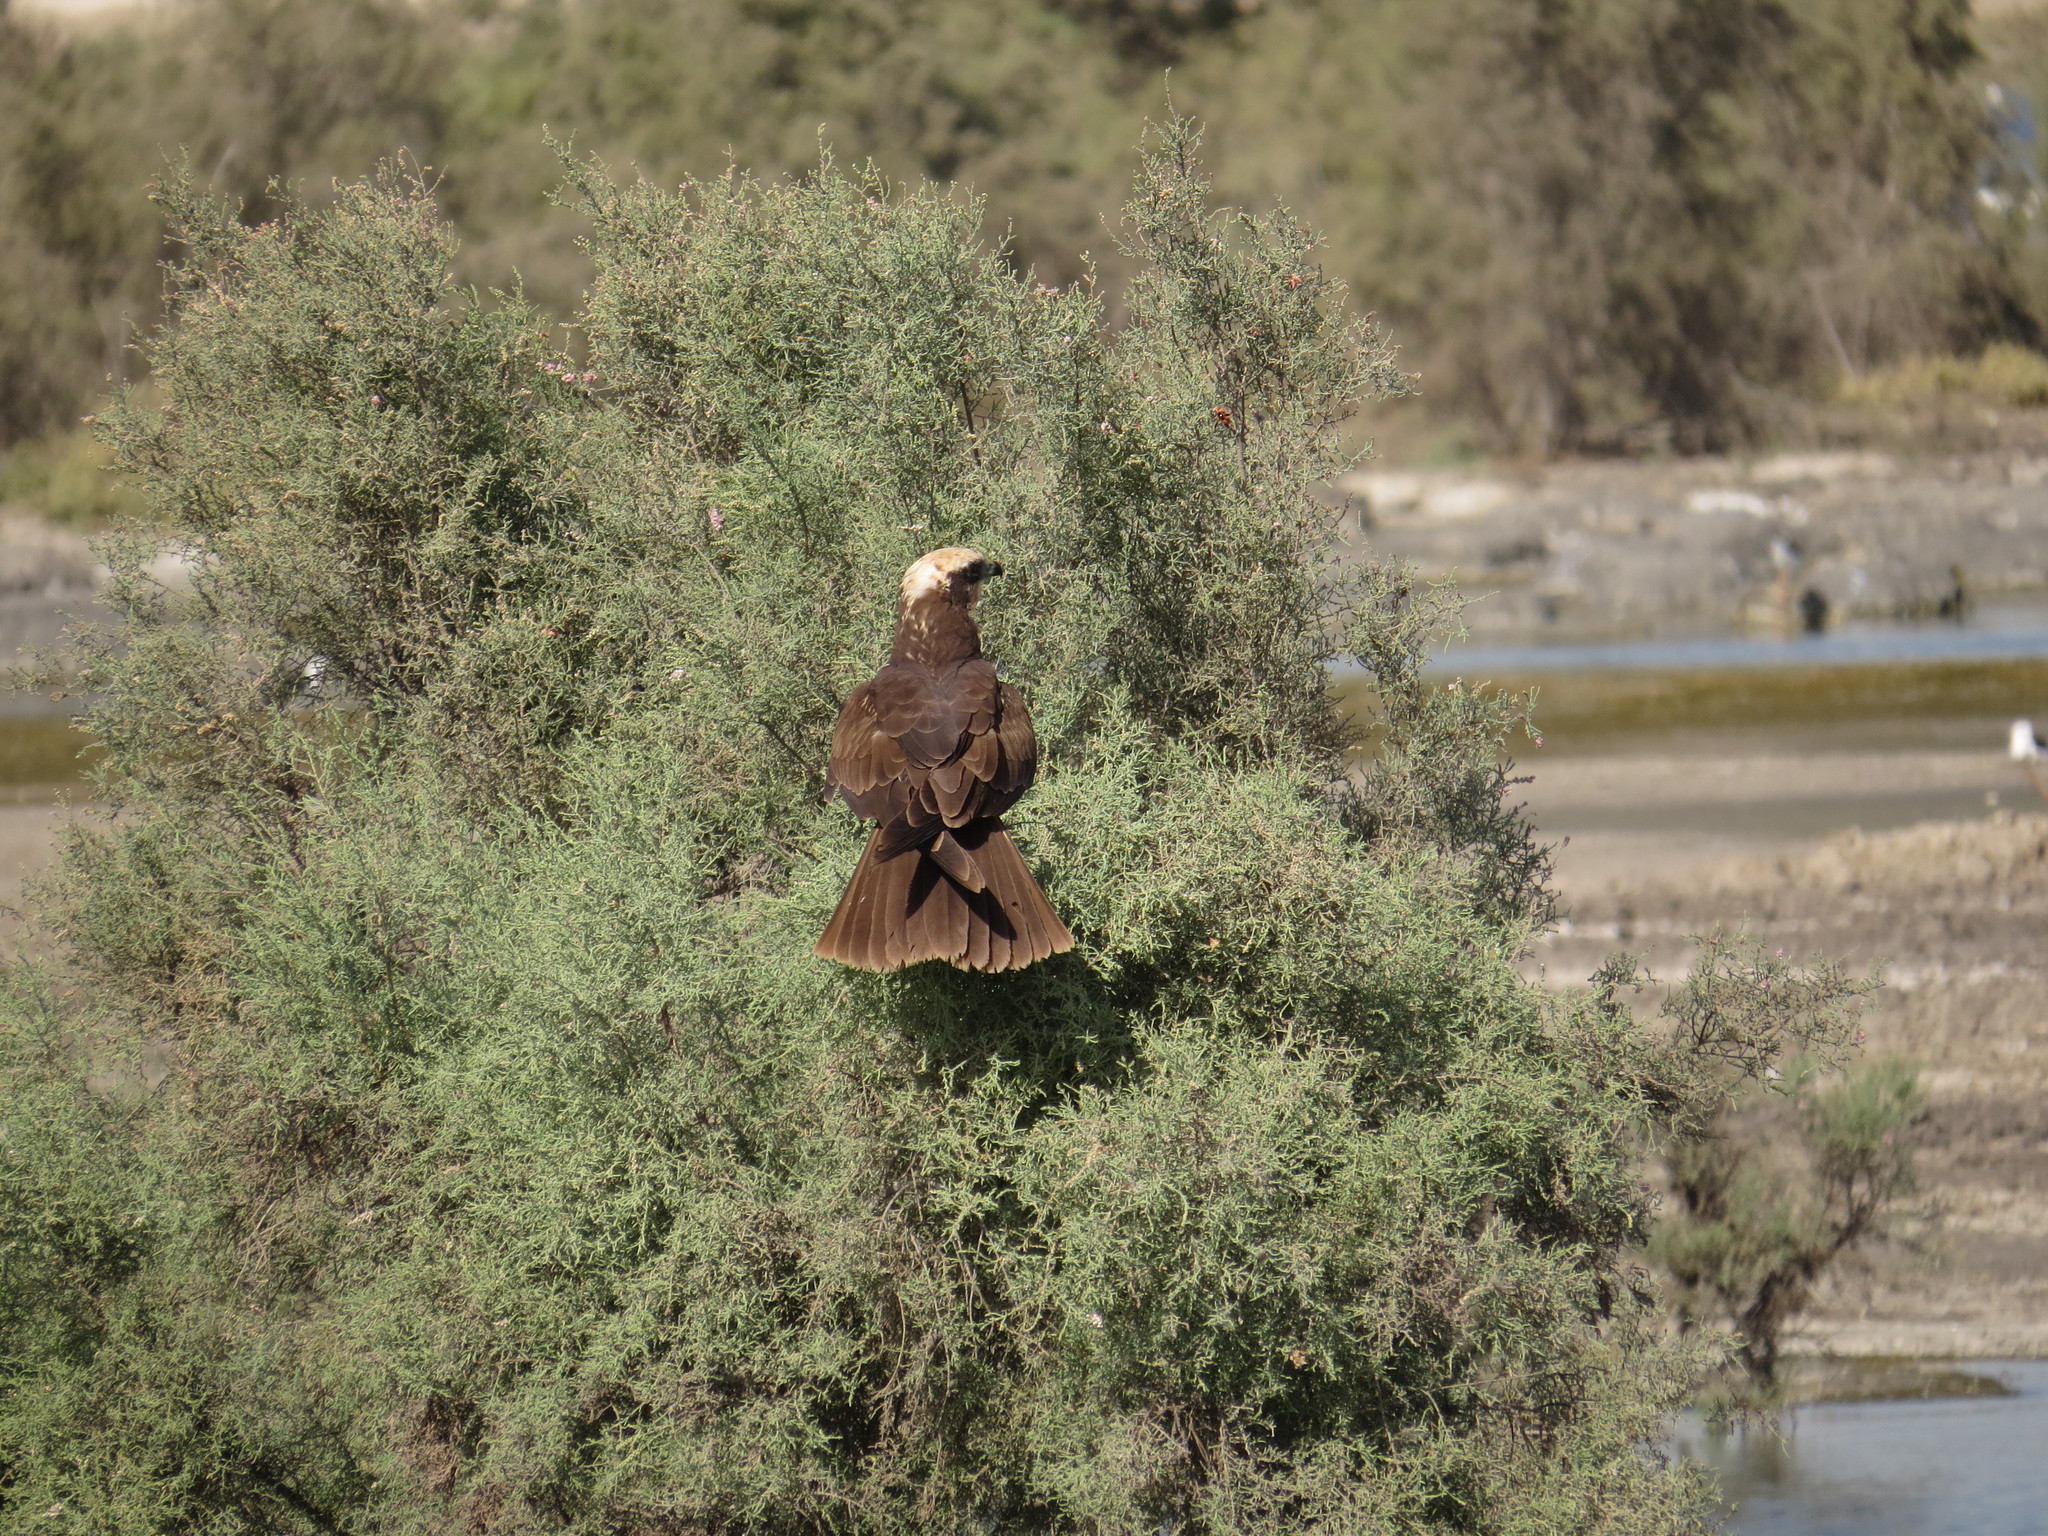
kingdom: Animalia
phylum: Chordata
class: Aves
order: Accipitriformes
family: Accipitridae
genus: Circus
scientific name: Circus aeruginosus
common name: Western marsh harrier
